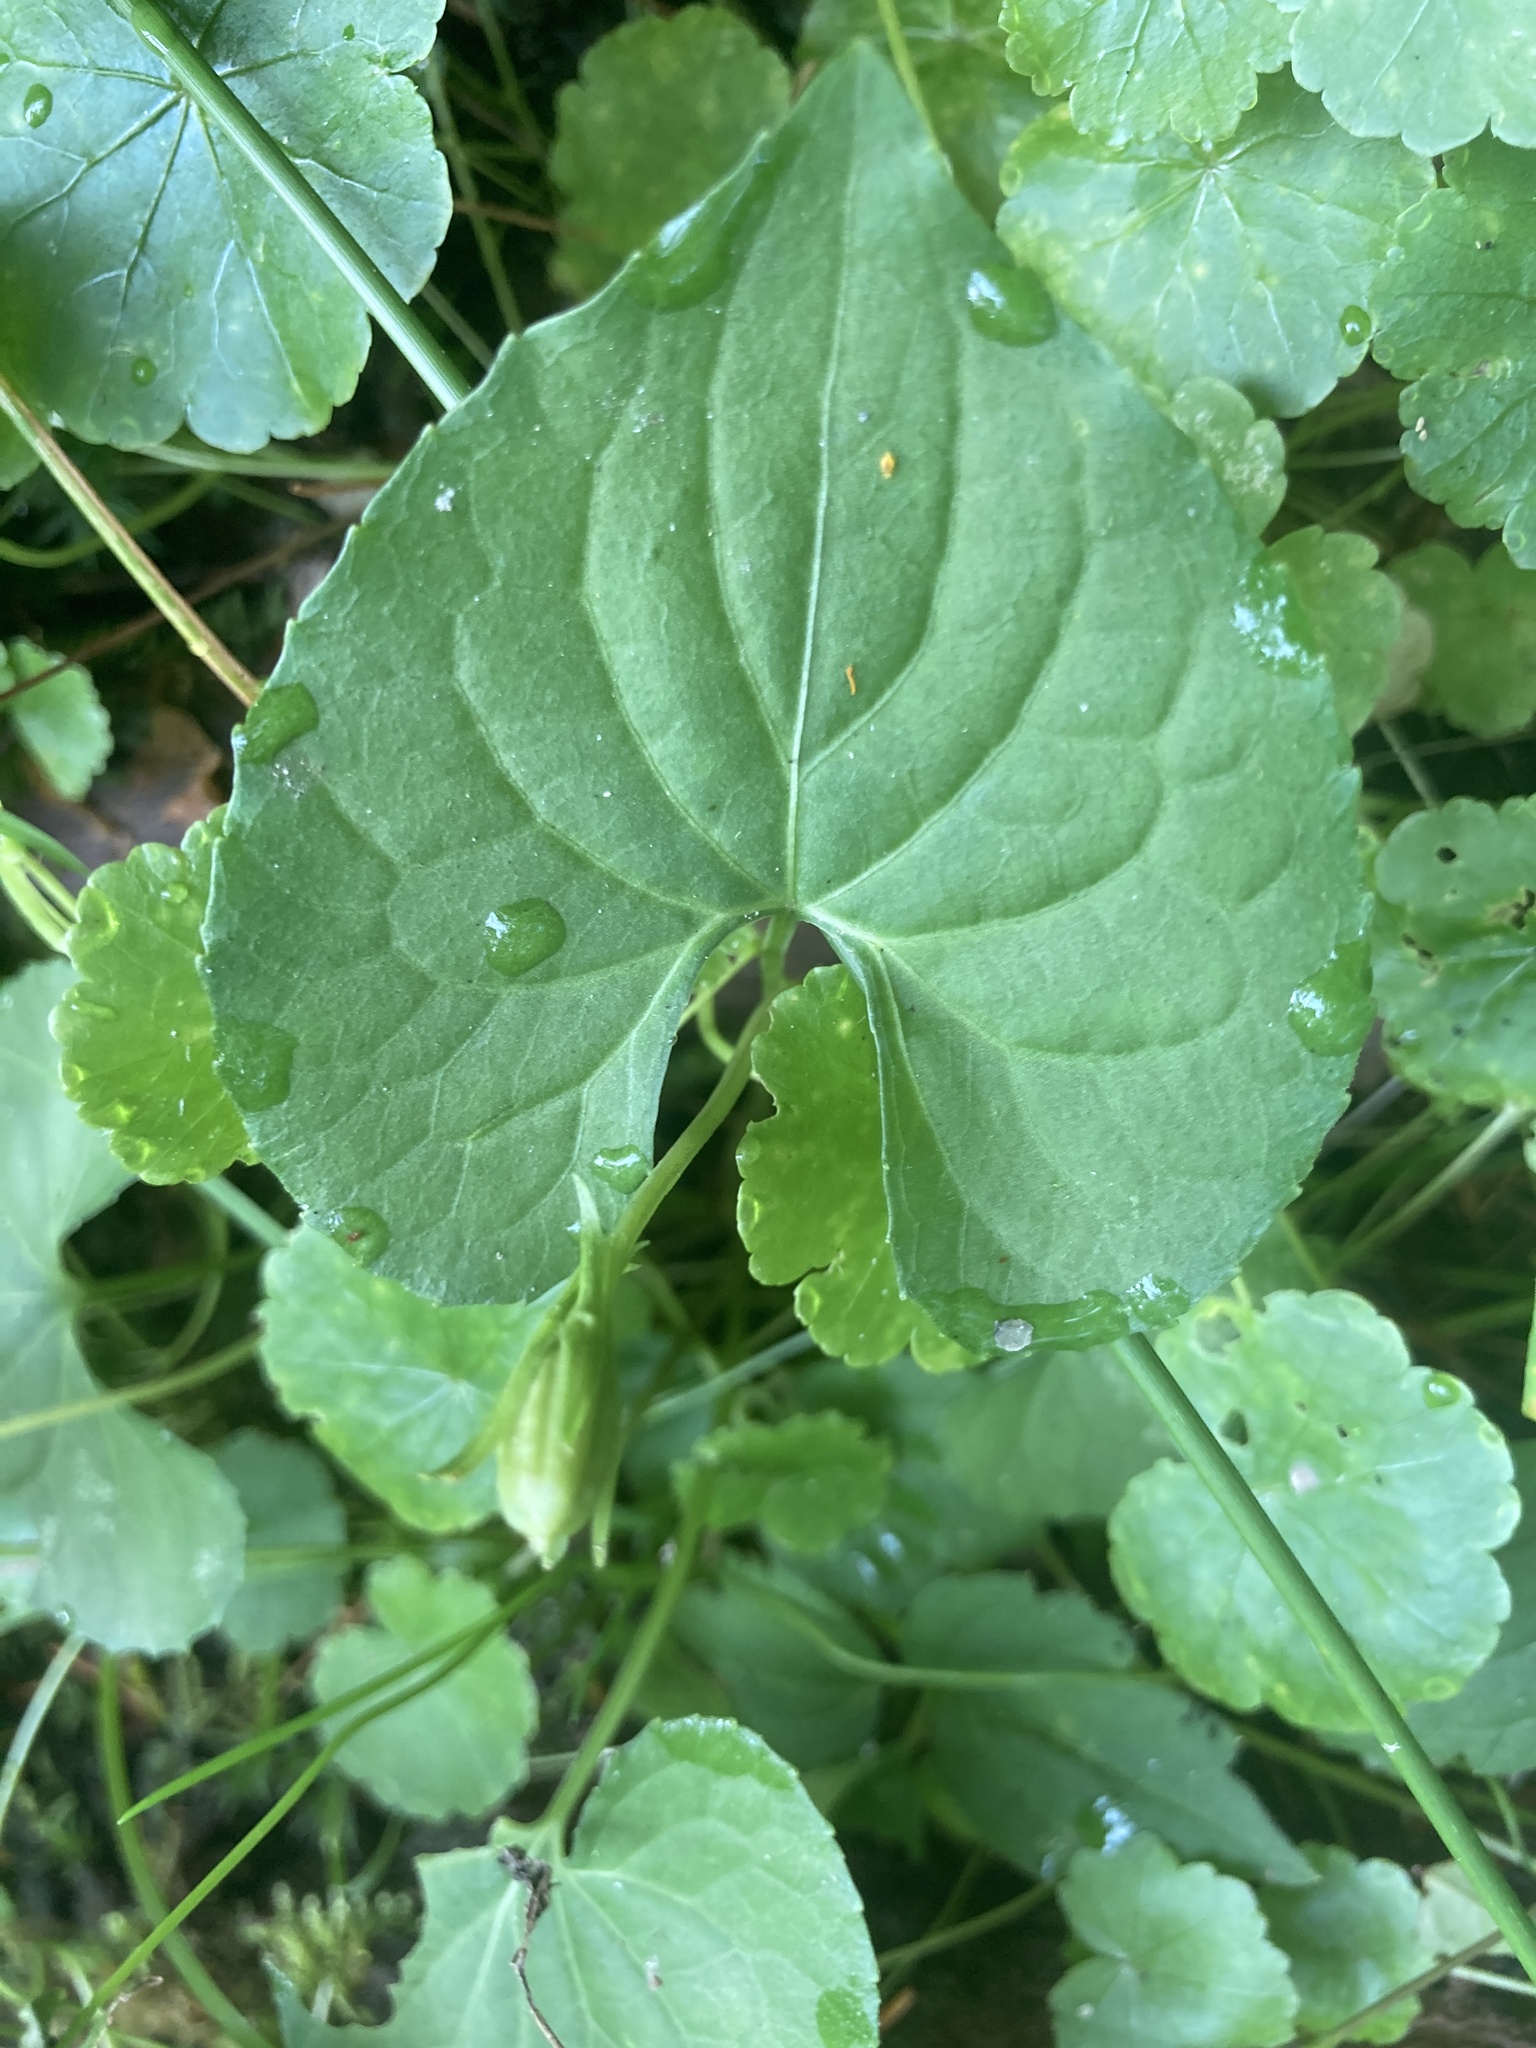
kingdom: Plantae
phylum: Tracheophyta
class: Magnoliopsida
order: Malpighiales
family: Violaceae
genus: Viola
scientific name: Viola cucullata
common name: Marsh blue violet
